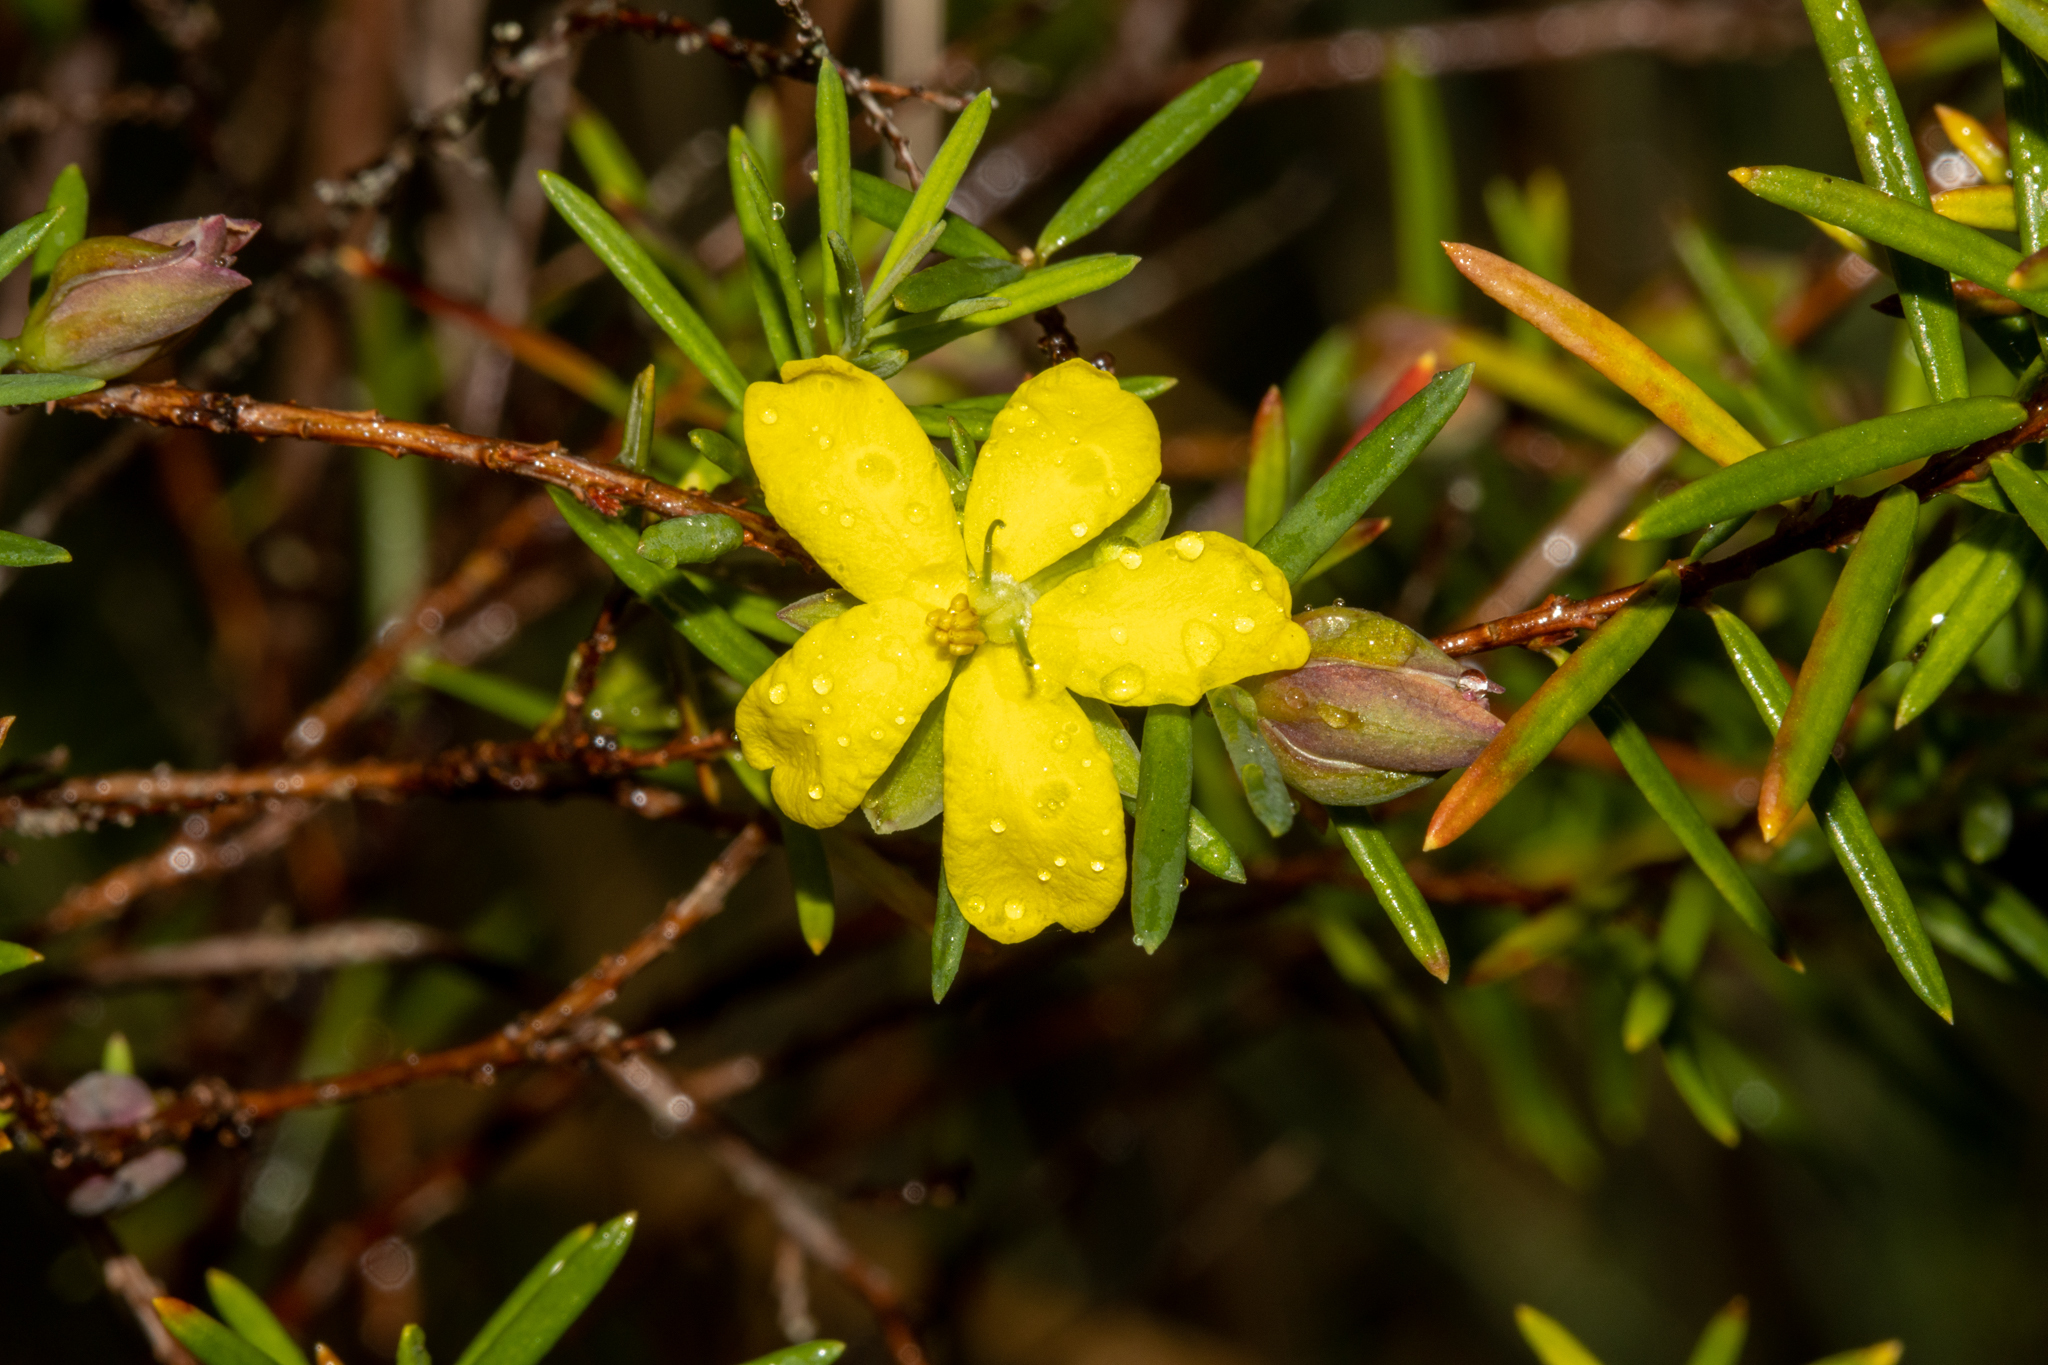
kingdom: Plantae
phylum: Tracheophyta
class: Magnoliopsida
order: Dilleniales
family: Dilleniaceae
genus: Hibbertia
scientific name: Hibbertia sulcinervis
